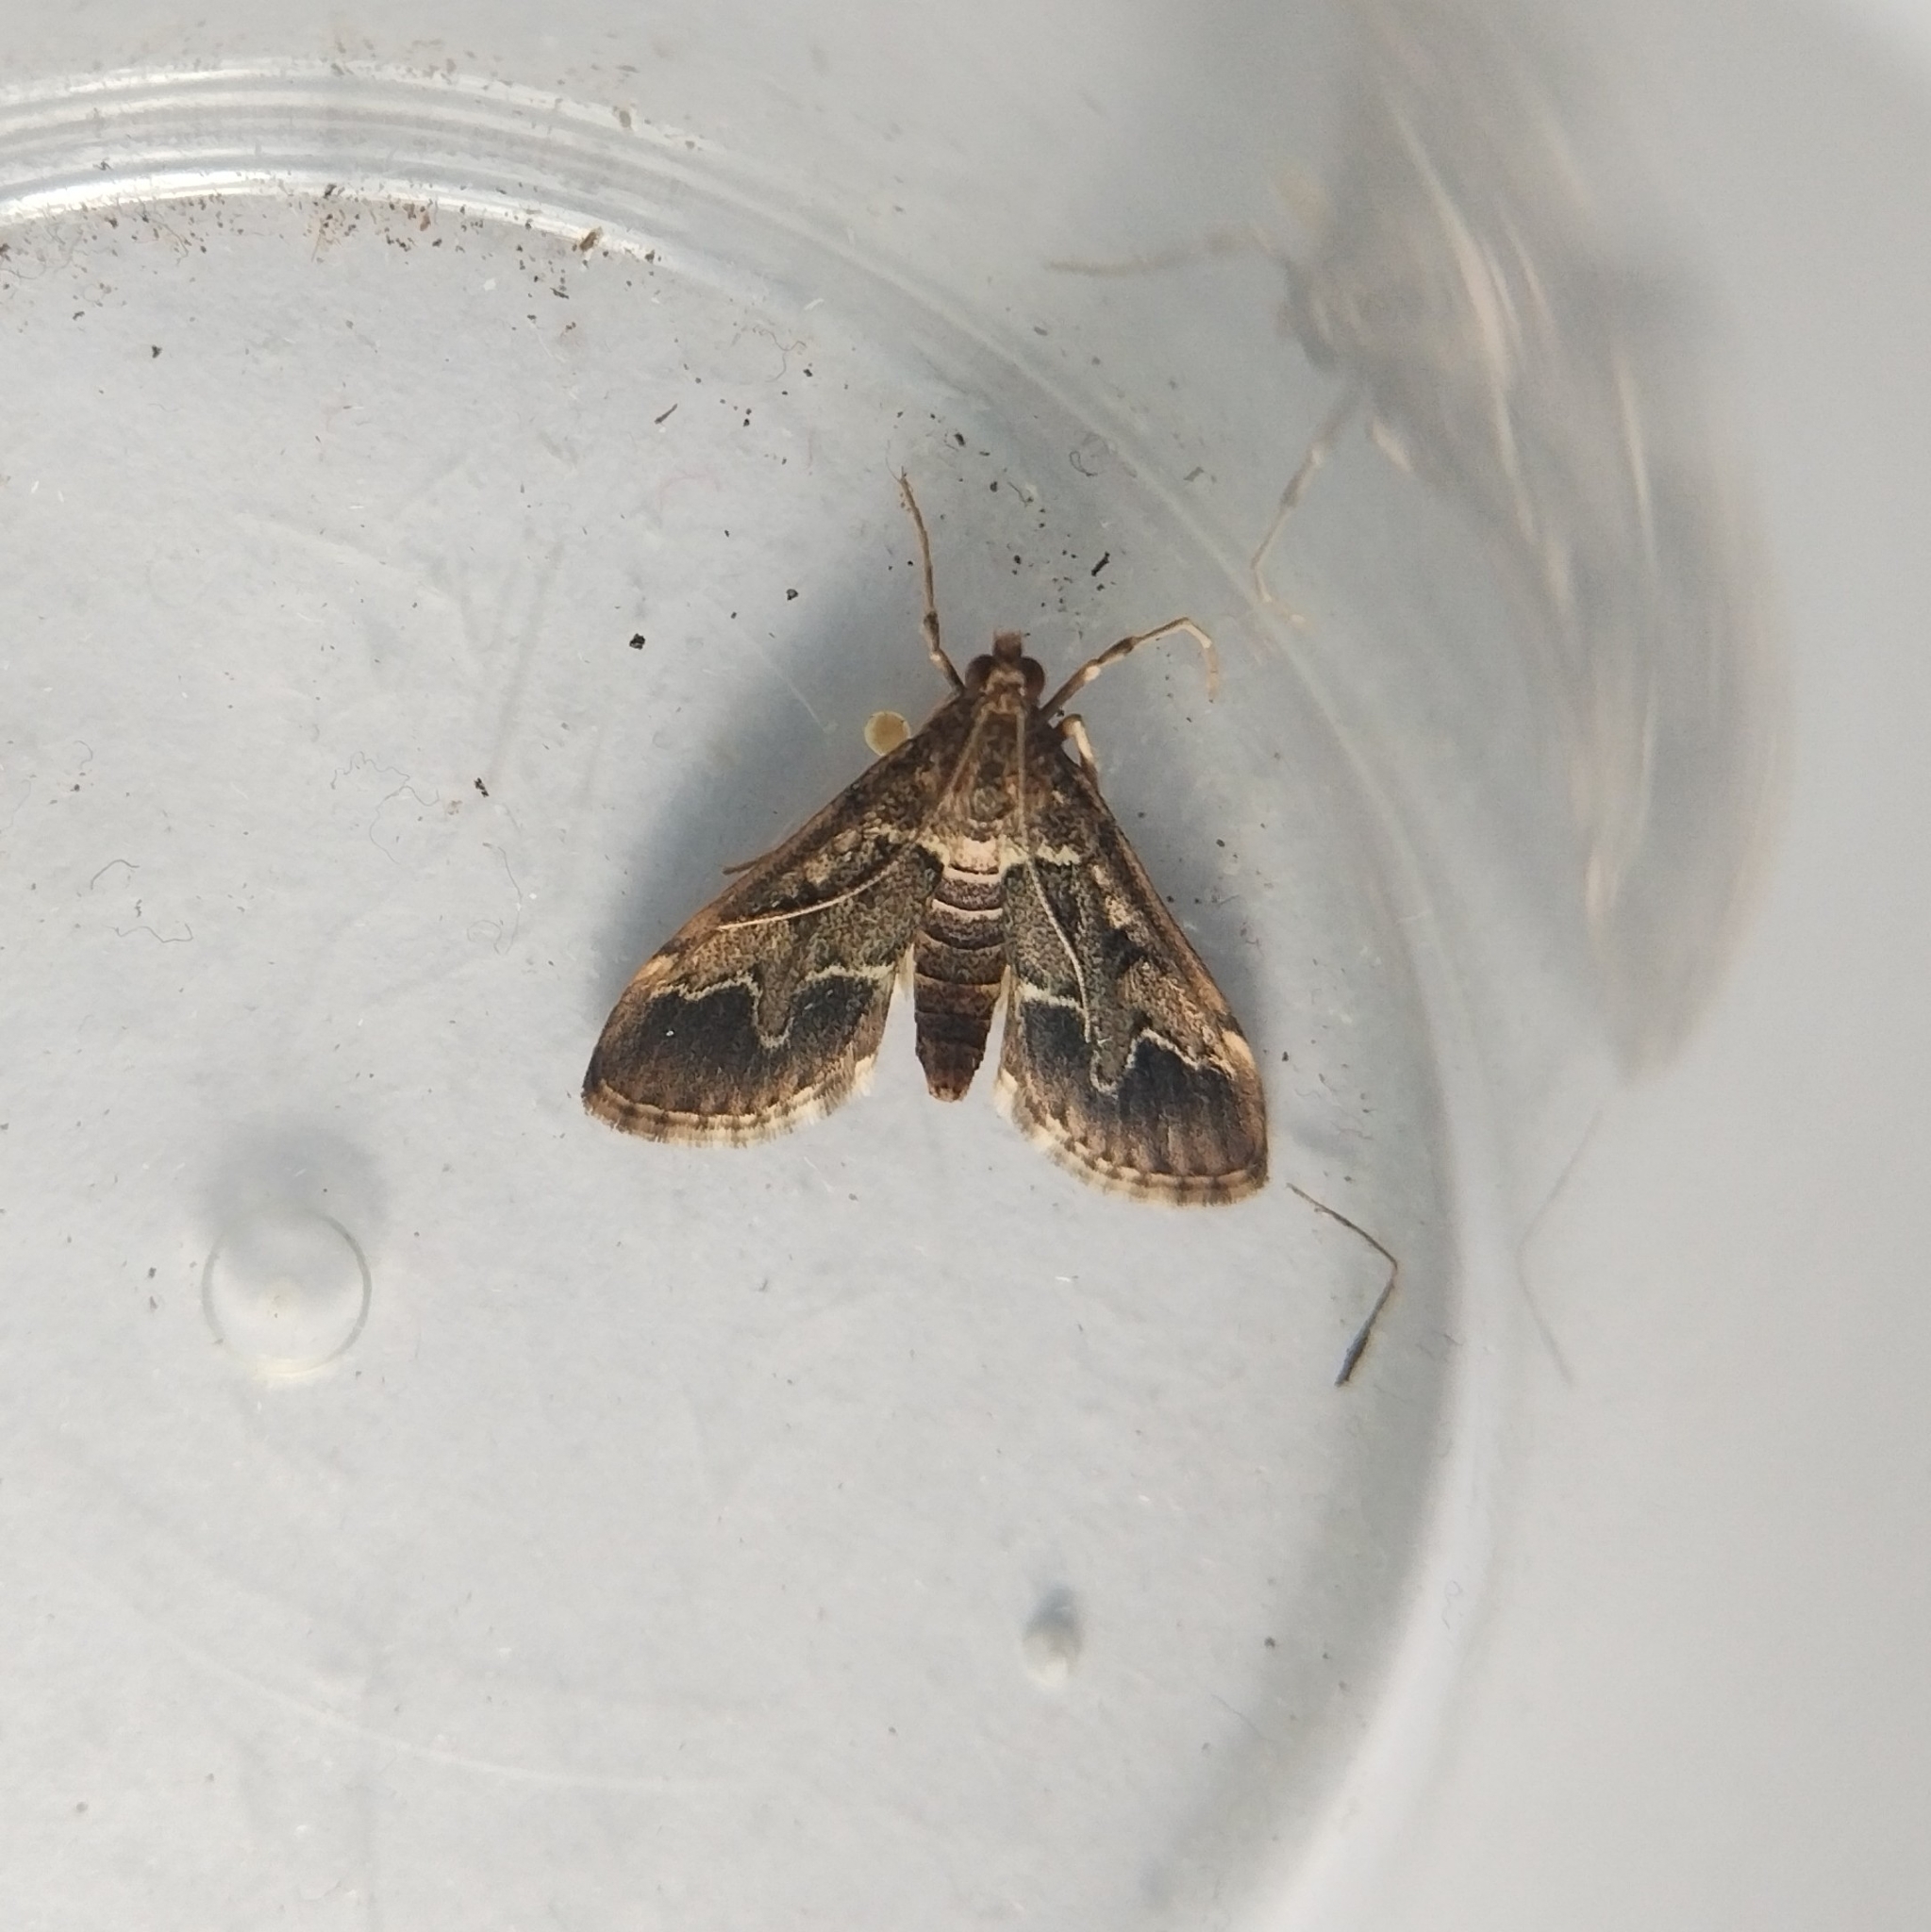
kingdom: Animalia
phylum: Arthropoda
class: Insecta
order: Lepidoptera
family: Crambidae
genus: Duponchelia
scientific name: Duponchelia fovealis
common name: Crambid moth
